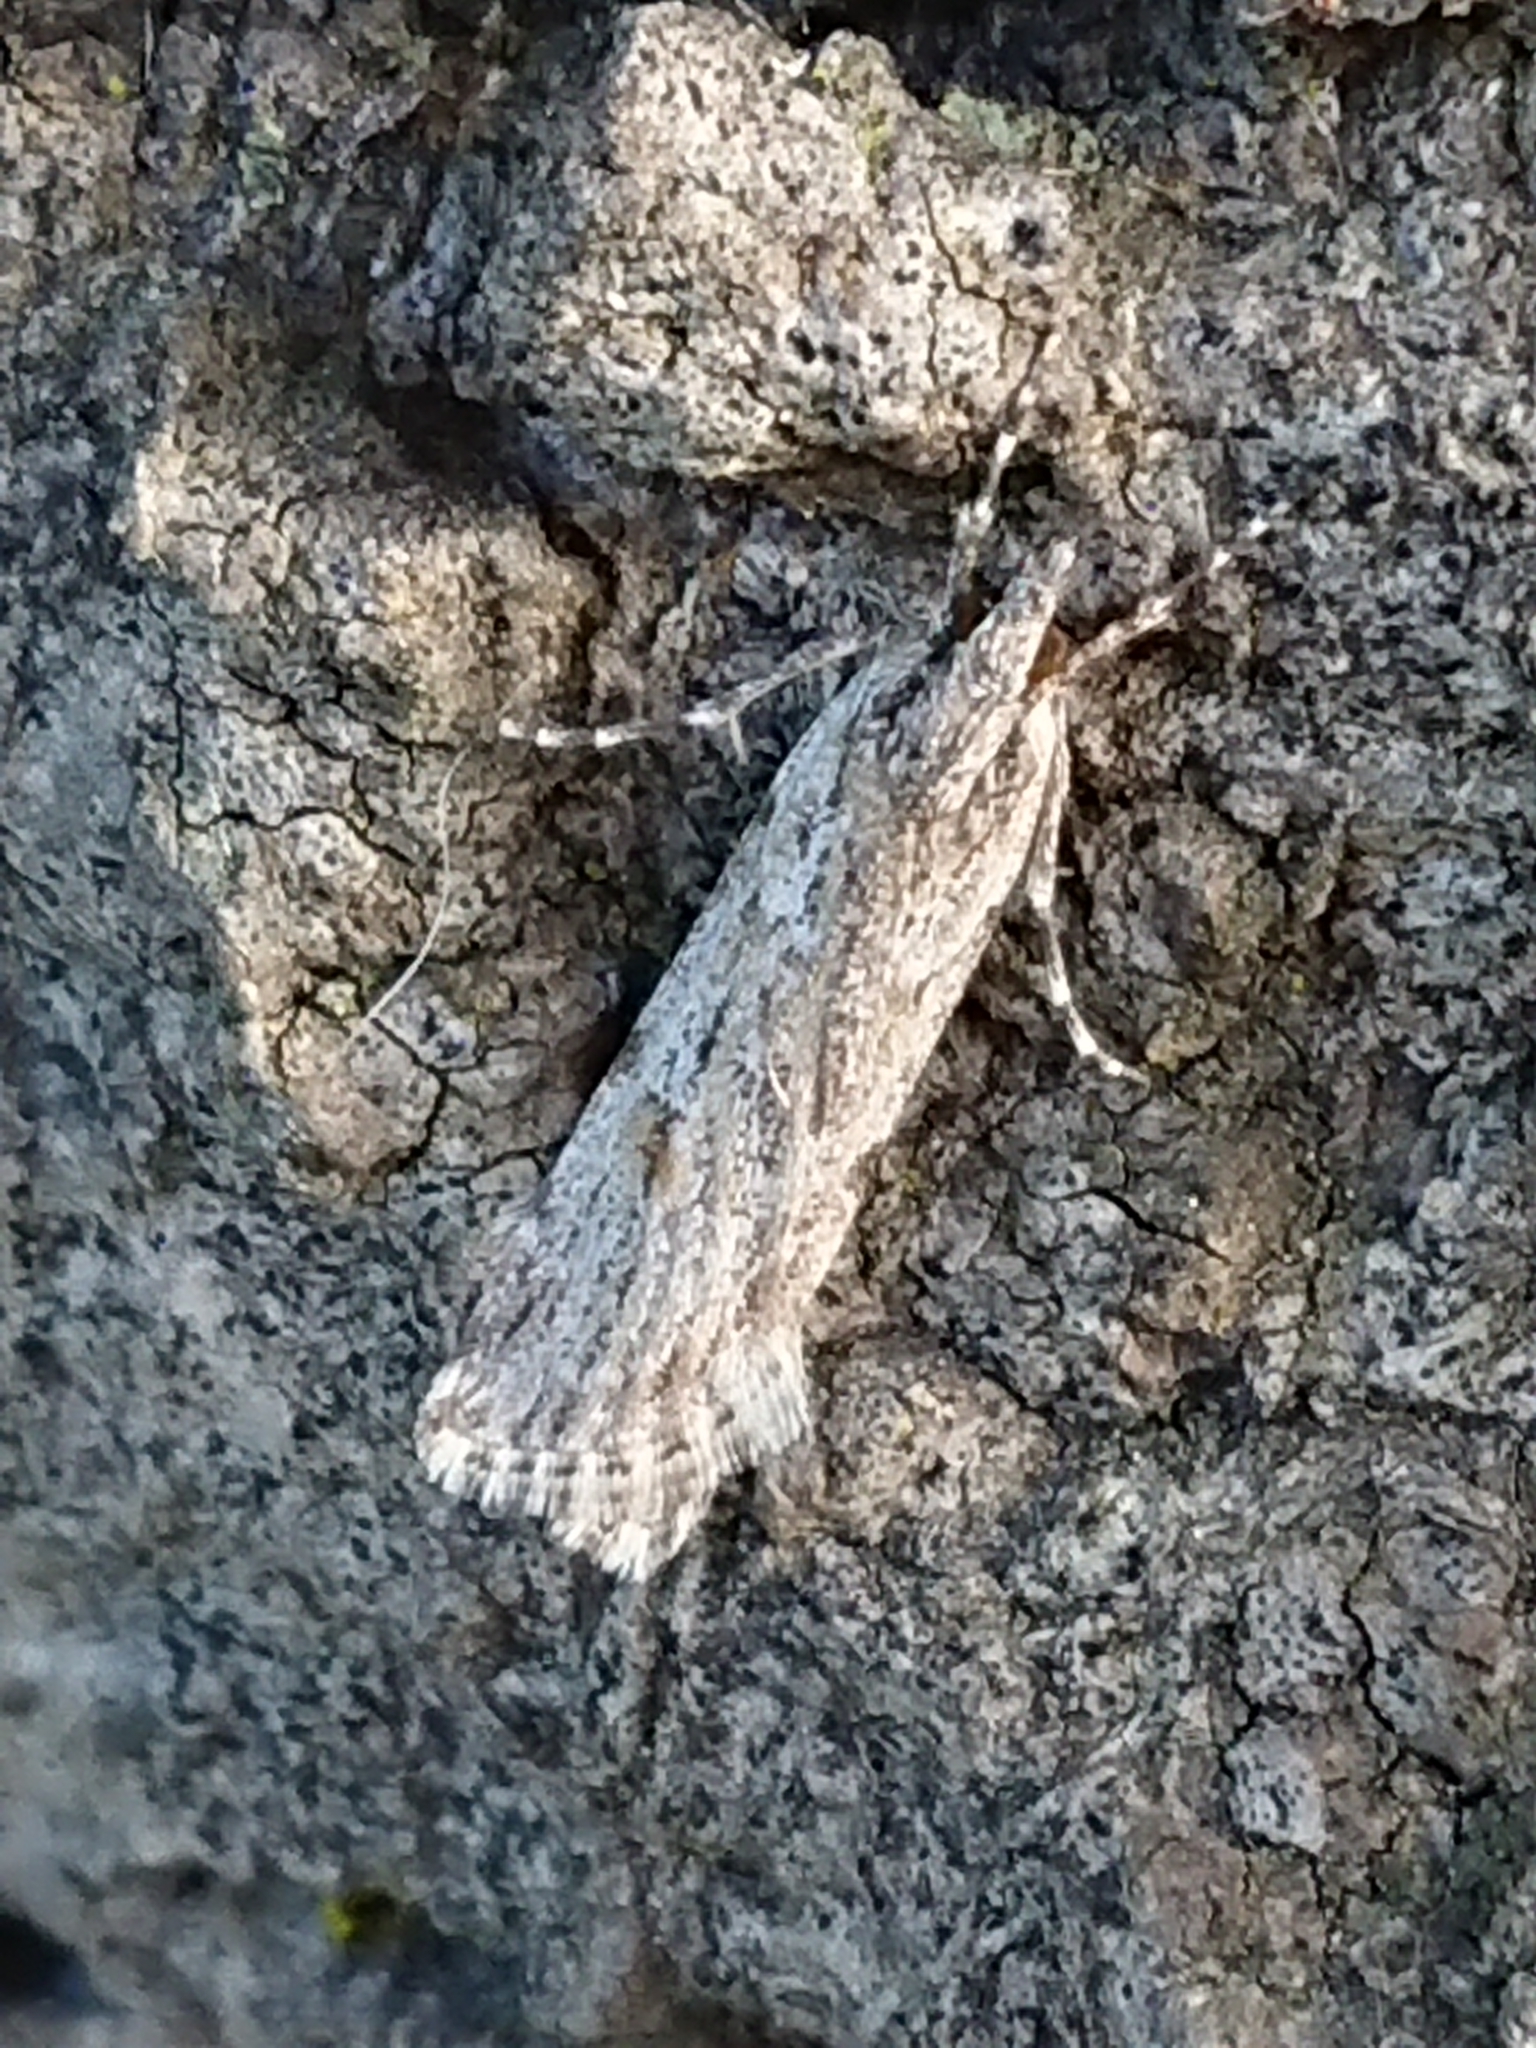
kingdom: Animalia
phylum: Arthropoda
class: Insecta
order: Lepidoptera
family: Crambidae
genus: Scoparia
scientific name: Scoparia chalicodes
